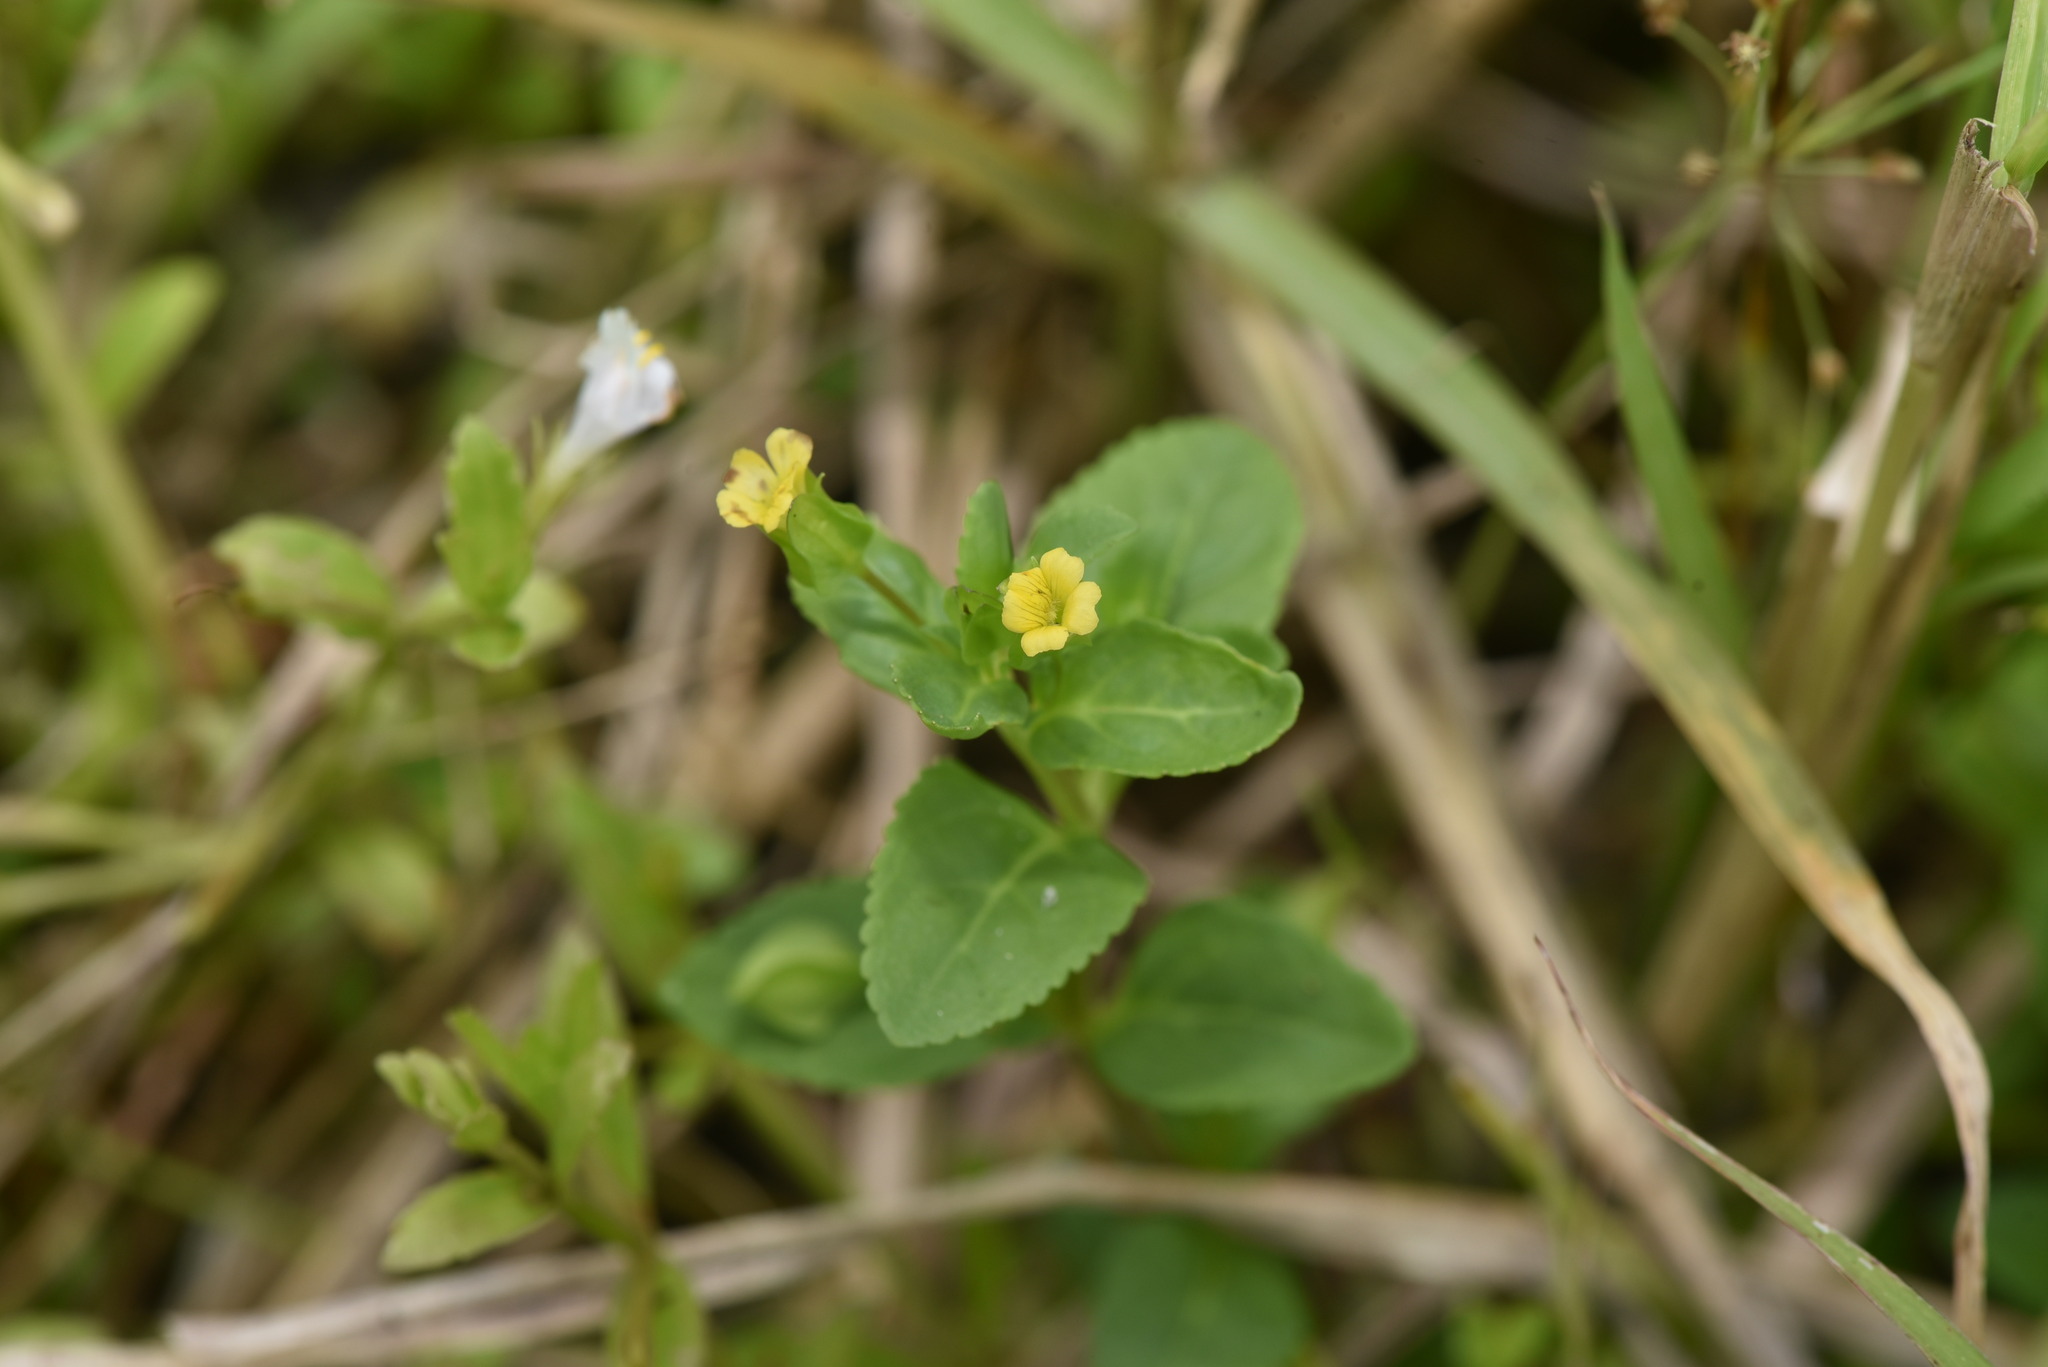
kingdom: Plantae
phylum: Tracheophyta
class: Magnoliopsida
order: Lamiales
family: Plantaginaceae
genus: Mecardonia
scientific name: Mecardonia procumbens
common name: Baby jump-up
